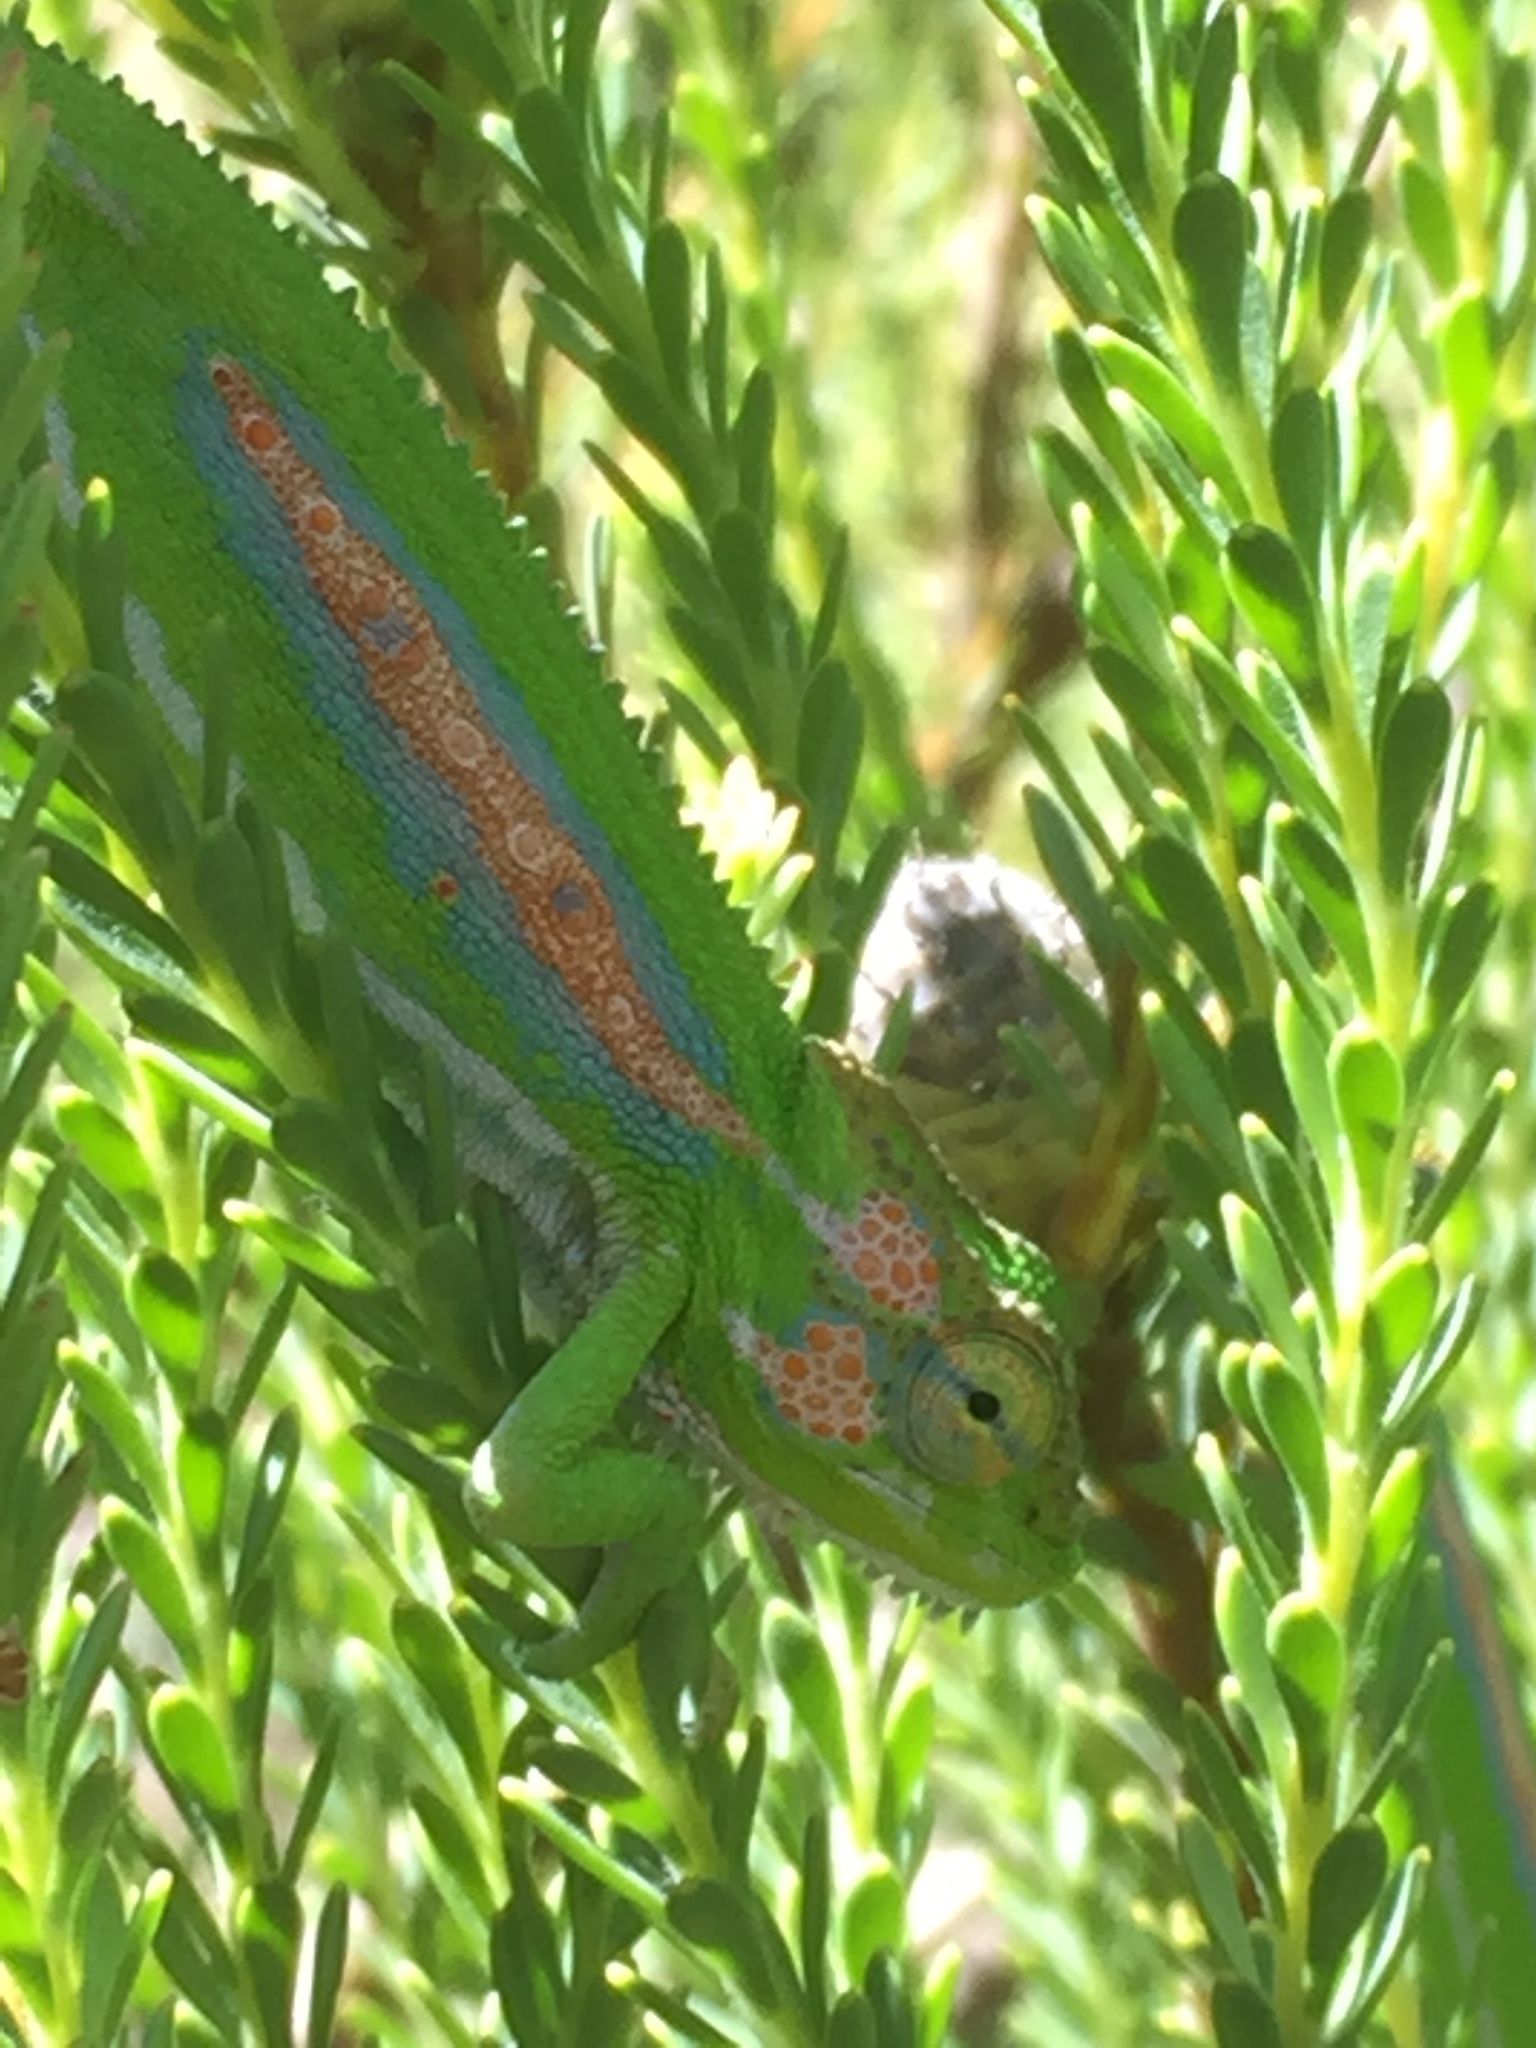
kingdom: Animalia
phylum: Chordata
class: Squamata
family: Chamaeleonidae
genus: Bradypodion
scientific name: Bradypodion pumilum
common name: Cape dwarf chameleon
